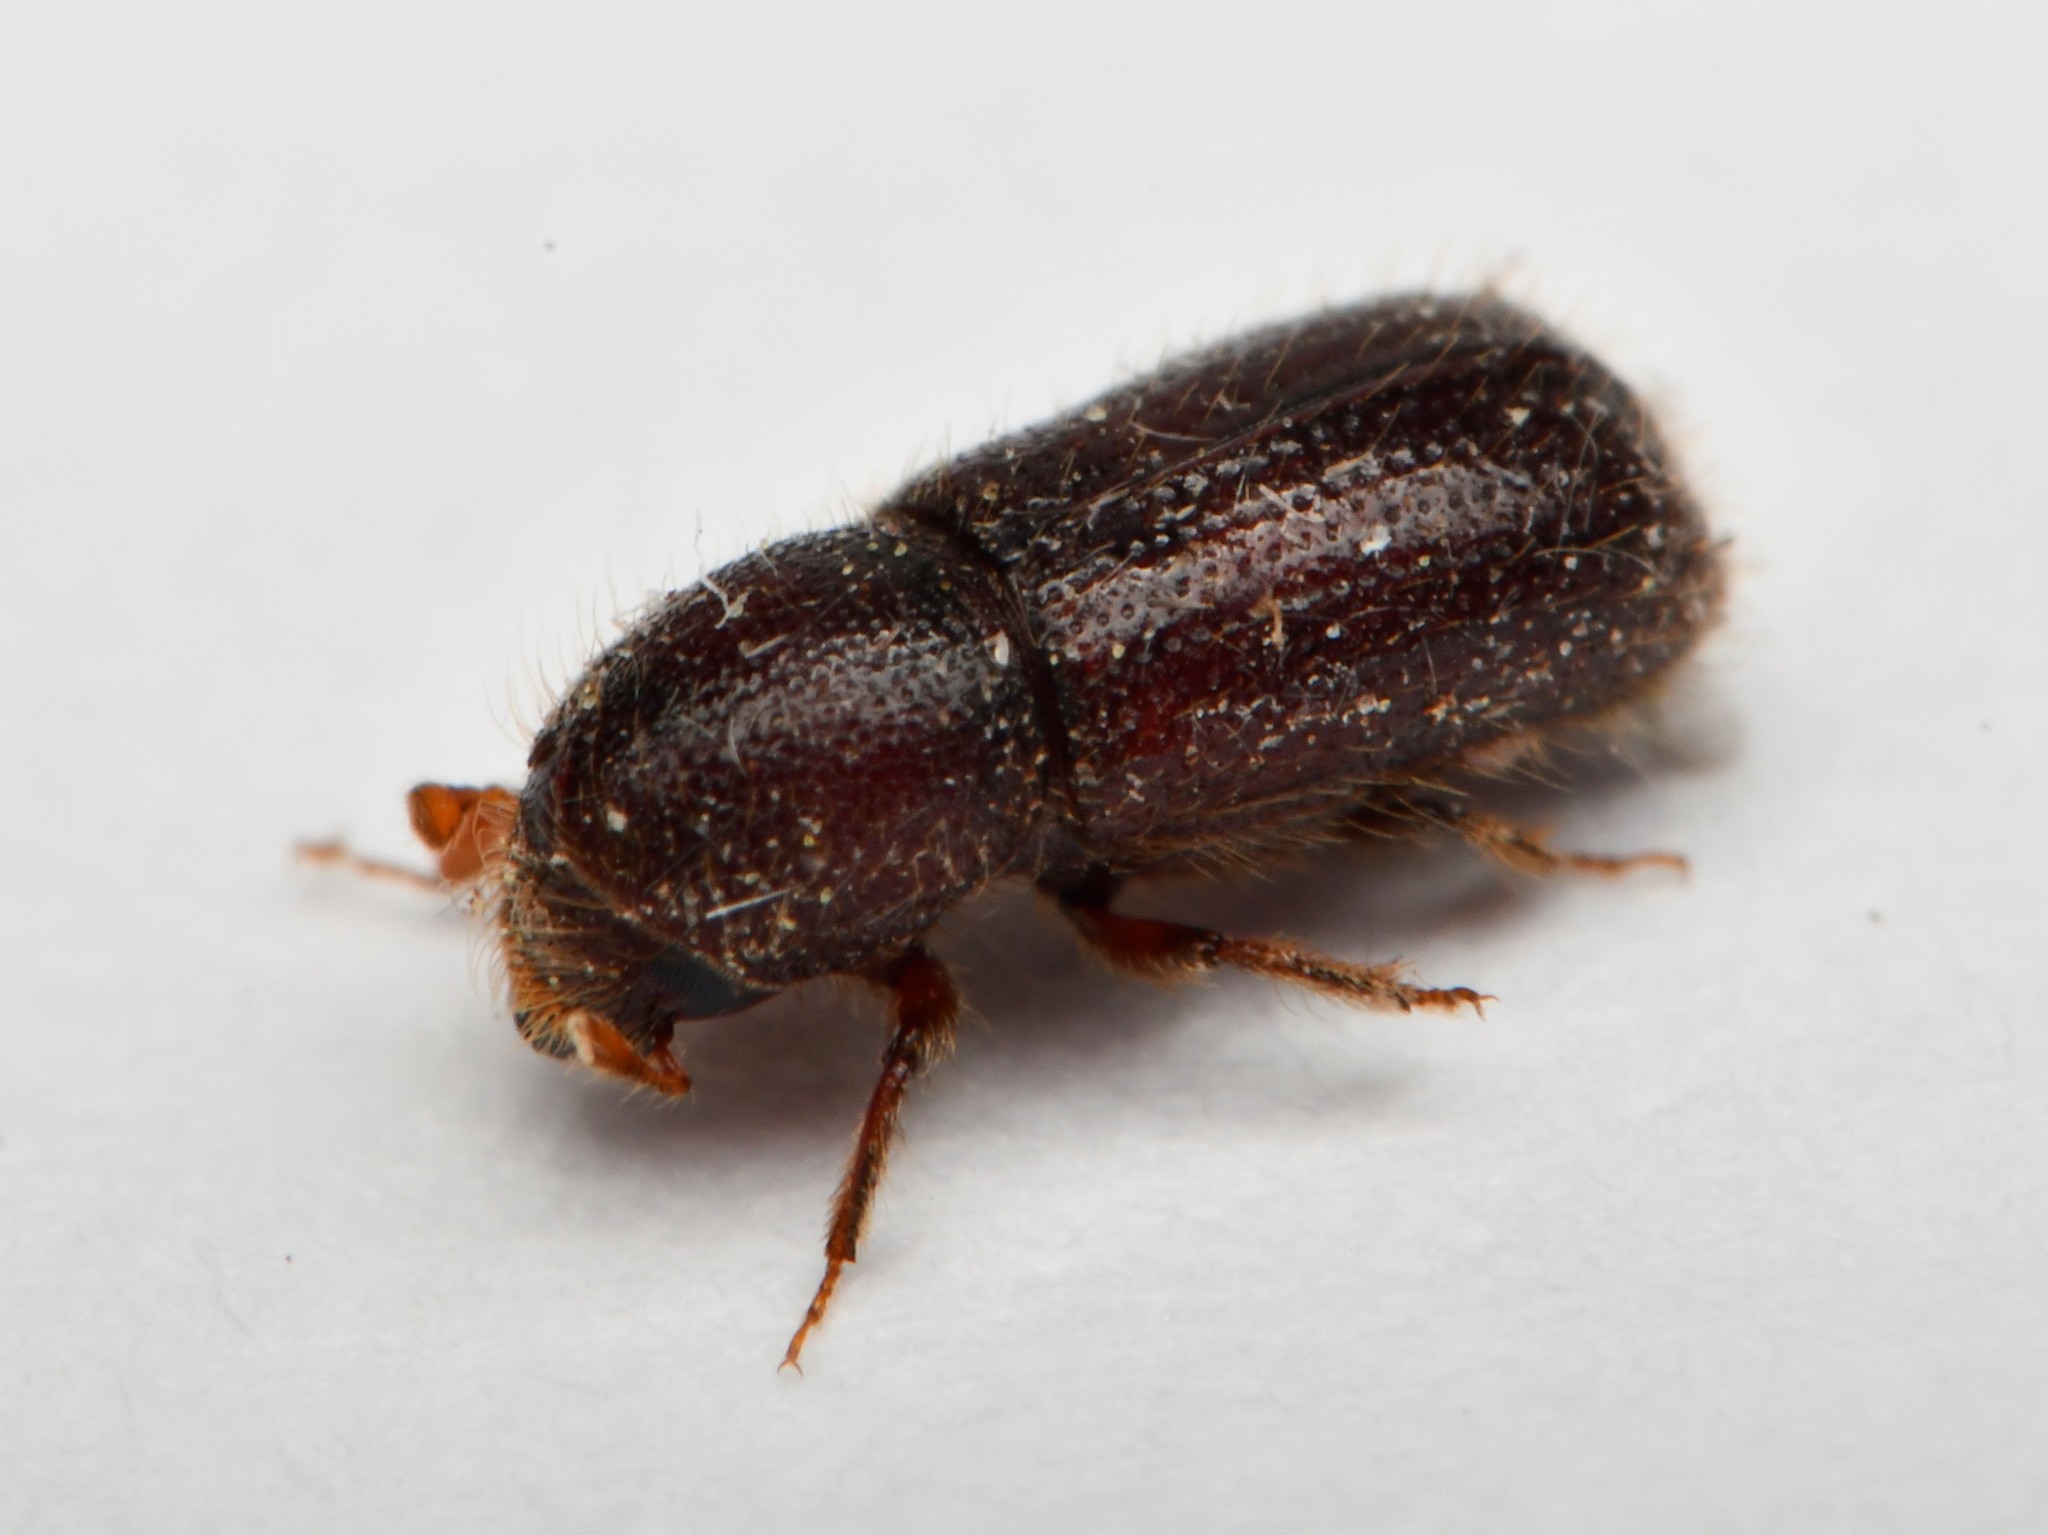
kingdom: Animalia
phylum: Arthropoda
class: Insecta
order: Coleoptera
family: Curculionidae
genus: Dryocoetes
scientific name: Dryocoetes autographus
